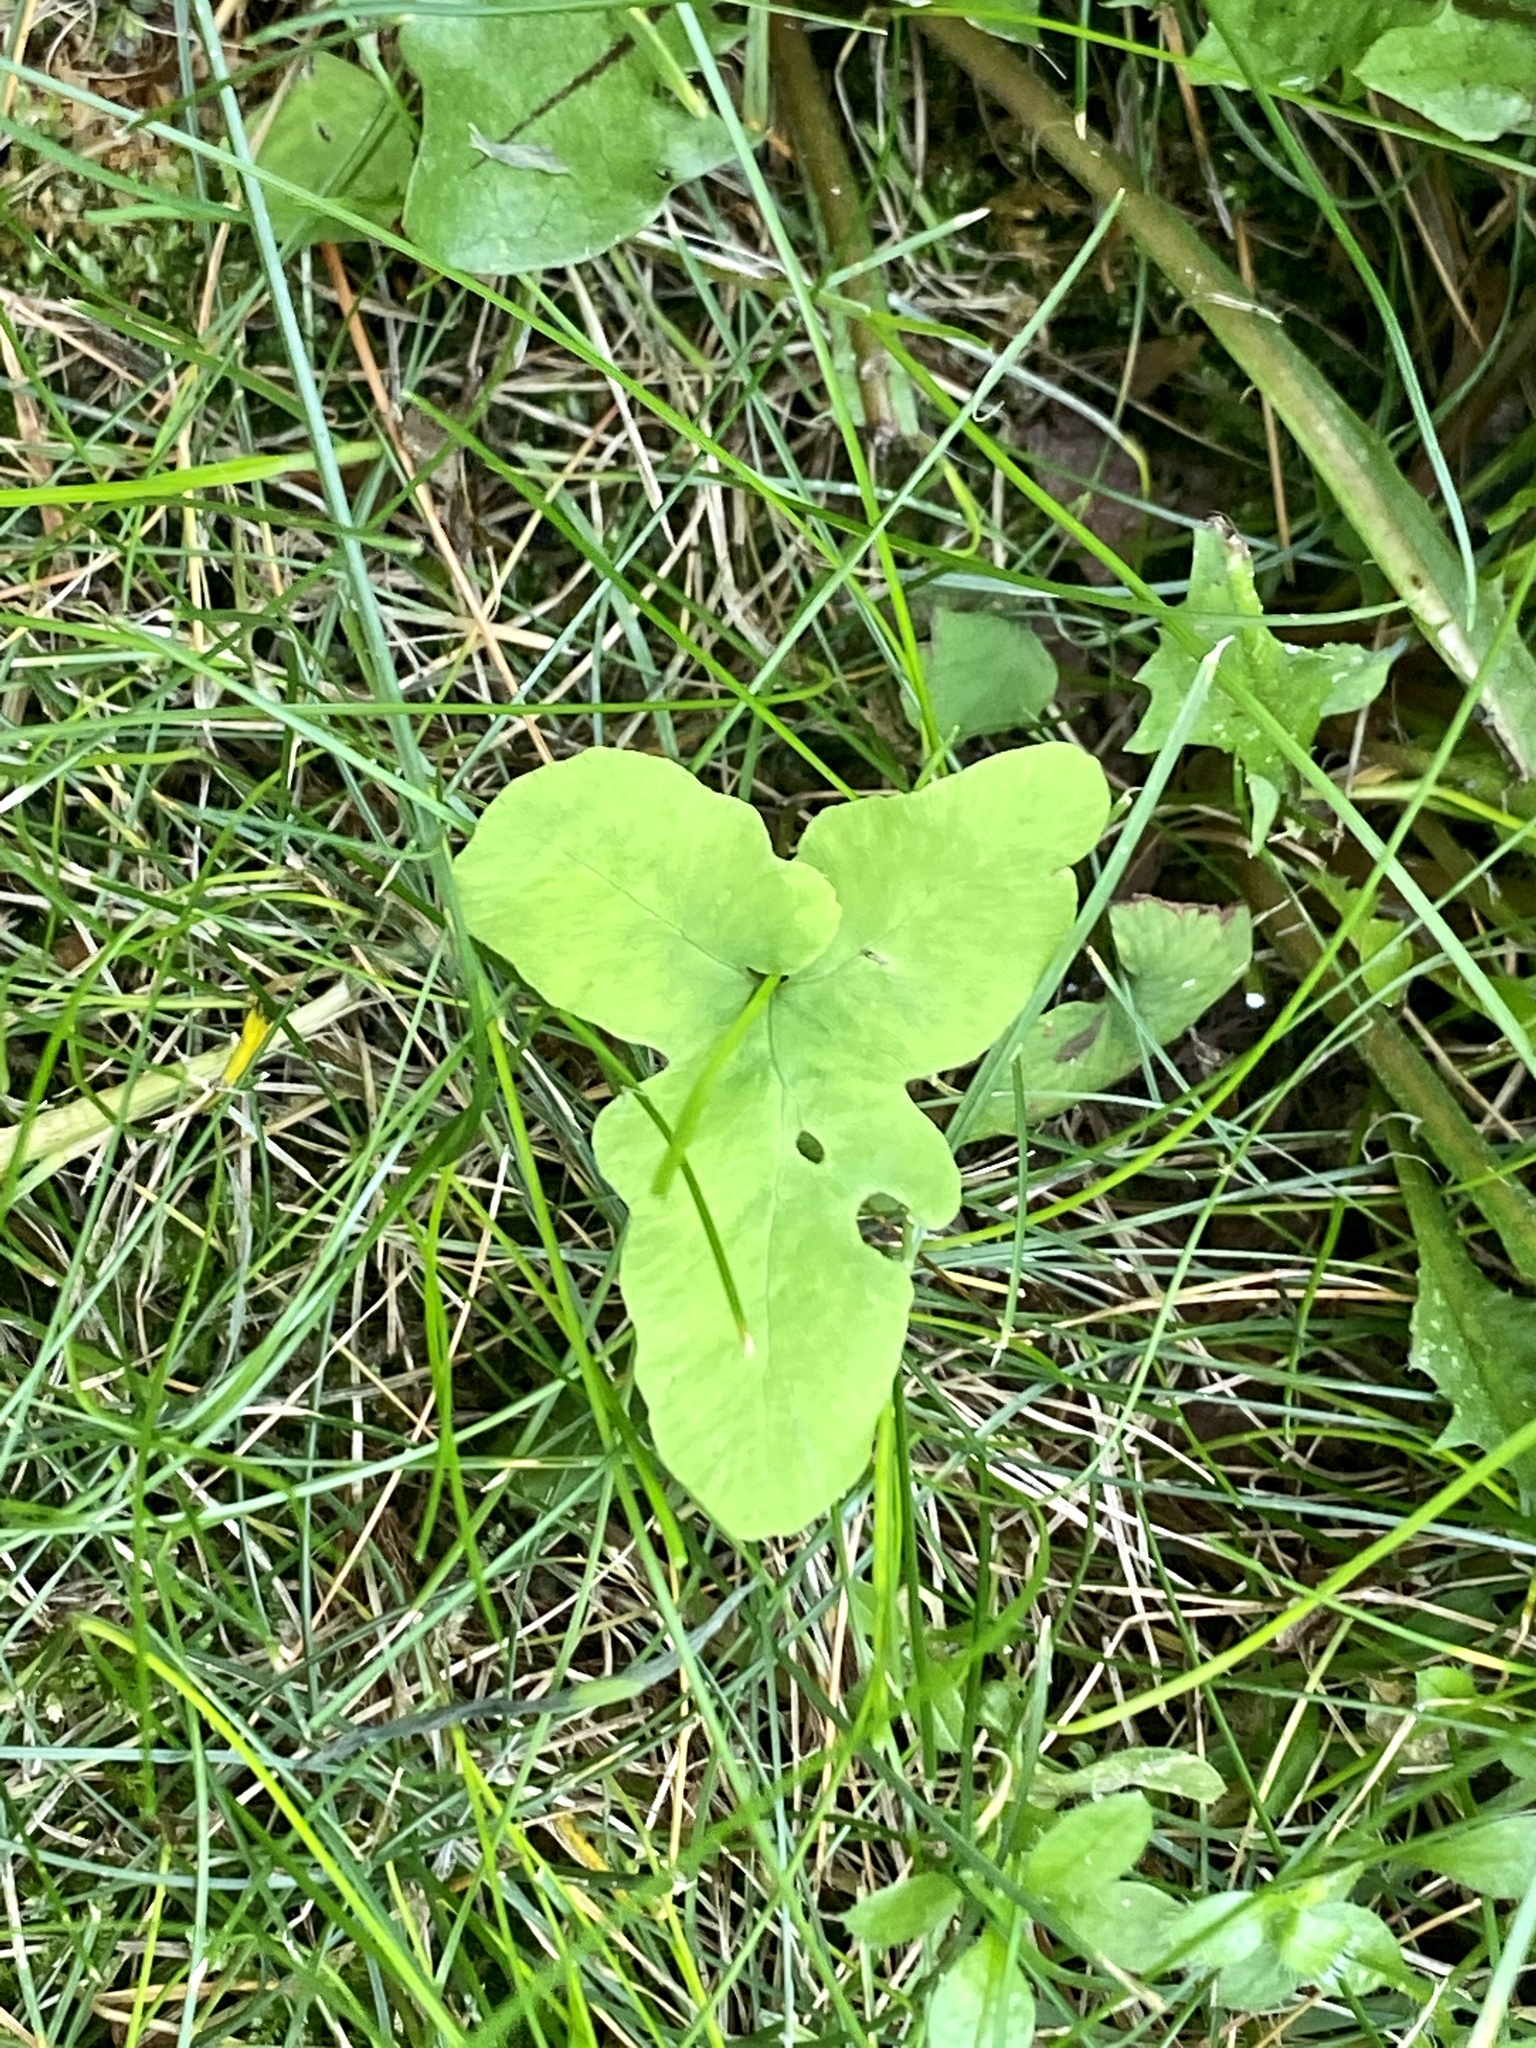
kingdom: Plantae
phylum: Tracheophyta
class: Polypodiopsida
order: Polypodiales
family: Onocleaceae
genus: Onoclea
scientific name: Onoclea sensibilis
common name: Sensitive fern
